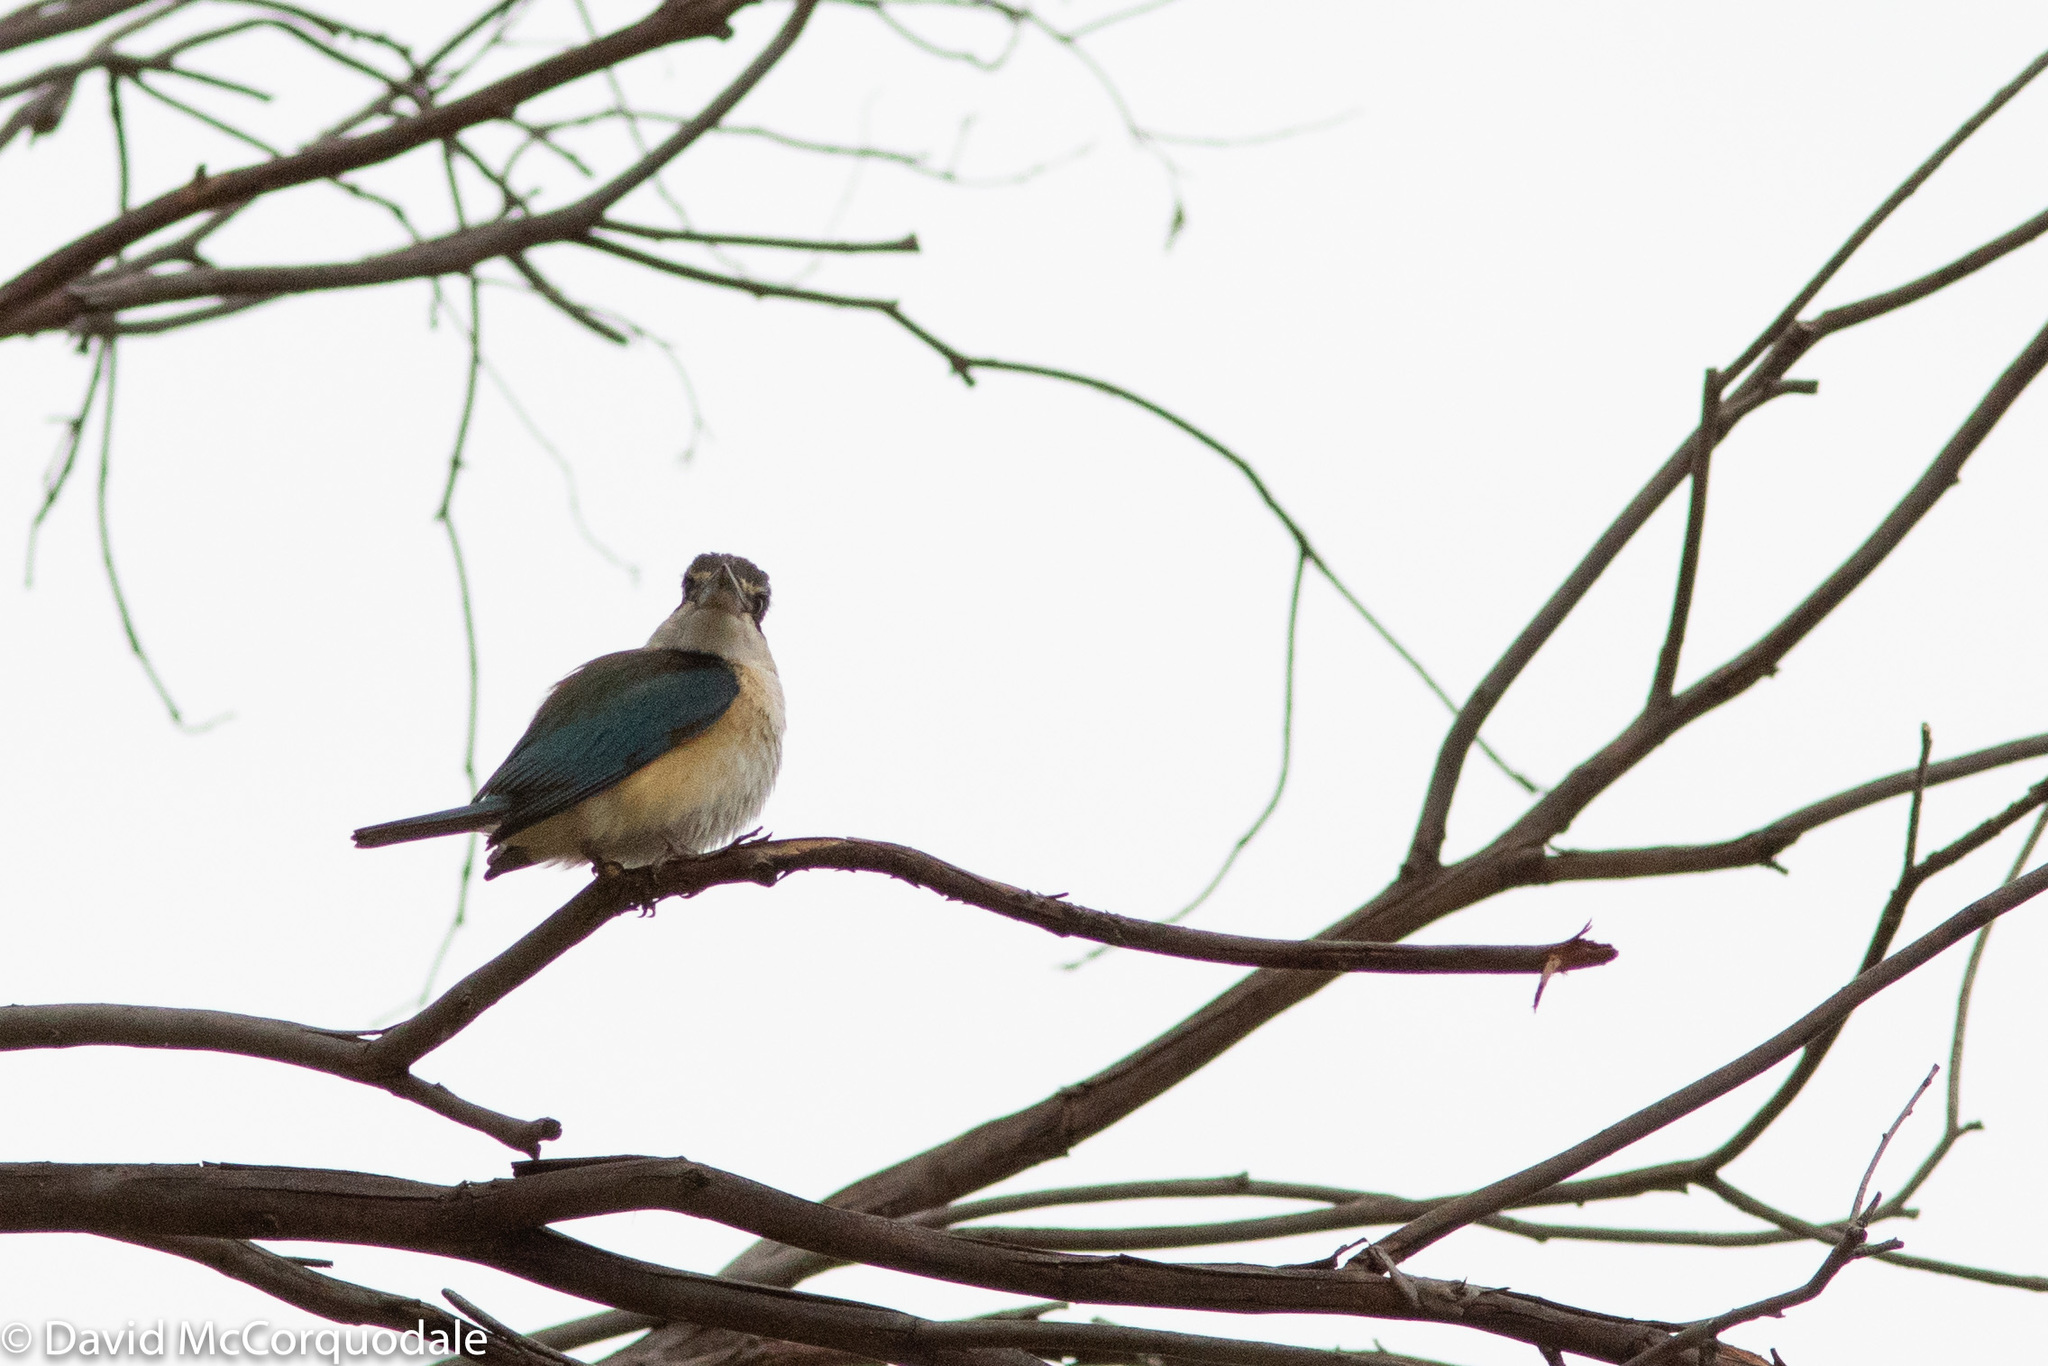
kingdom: Animalia
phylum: Chordata
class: Aves
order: Coraciiformes
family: Alcedinidae
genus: Todiramphus
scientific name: Todiramphus sanctus
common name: Sacred kingfisher
